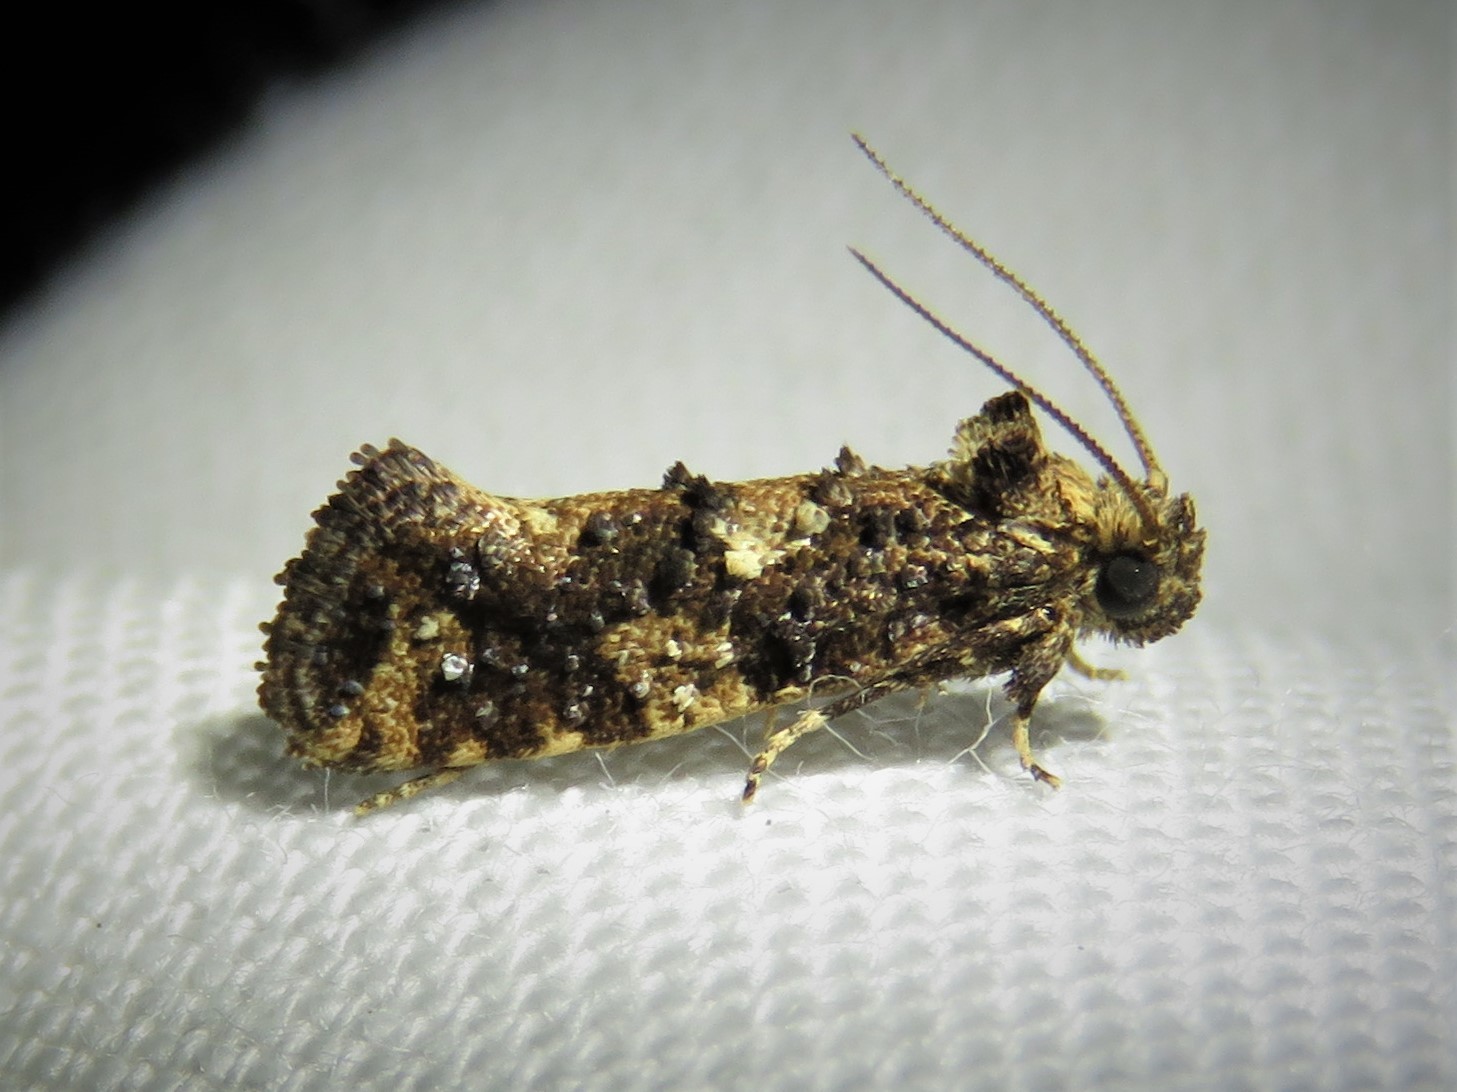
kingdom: Animalia
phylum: Arthropoda
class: Insecta
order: Lepidoptera
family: Tineidae
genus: Acrolophus
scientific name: Acrolophus cressoni
